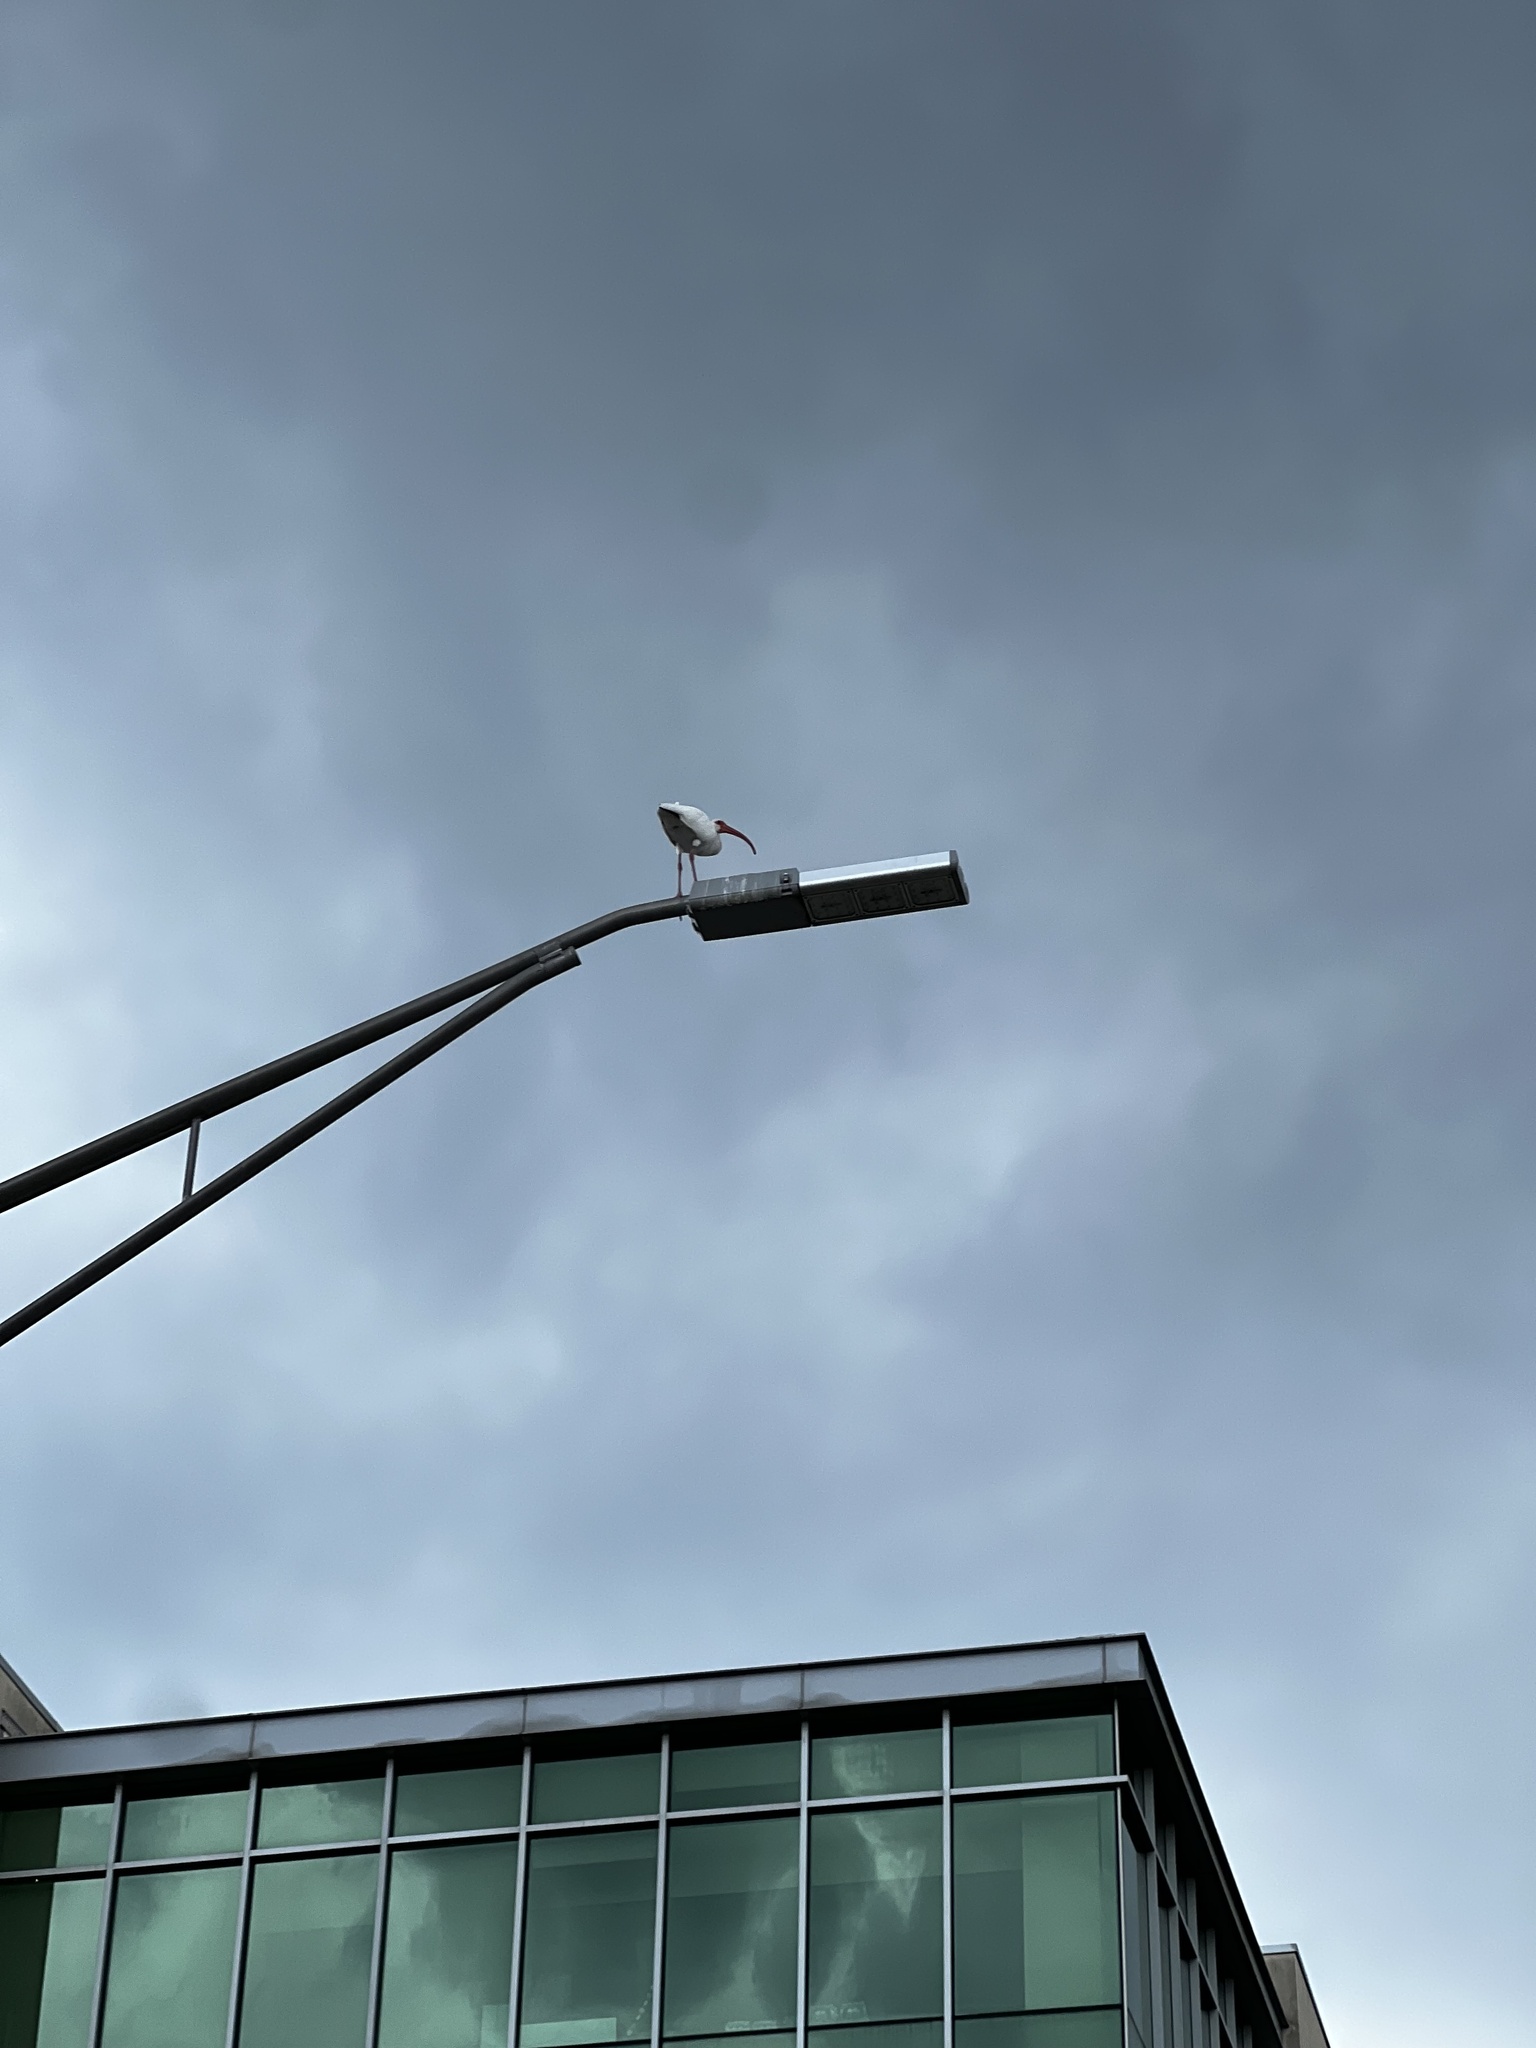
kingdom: Animalia
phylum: Chordata
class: Aves
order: Pelecaniformes
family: Threskiornithidae
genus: Eudocimus
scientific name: Eudocimus albus
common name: White ibis
